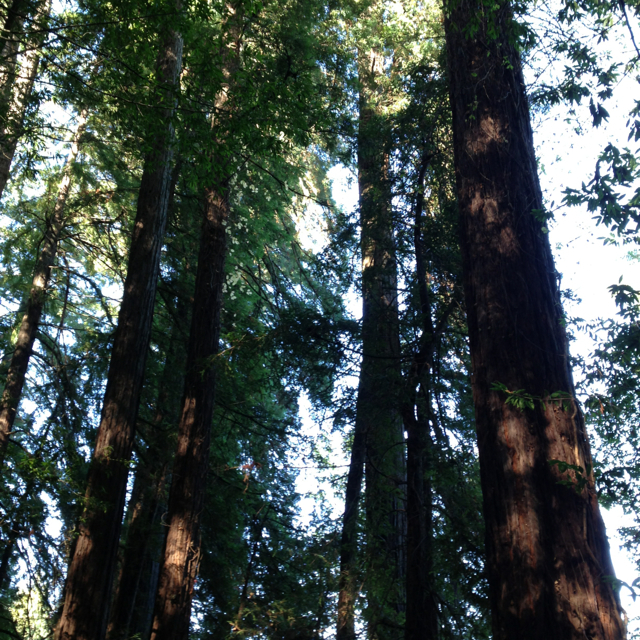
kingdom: Plantae
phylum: Tracheophyta
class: Pinopsida
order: Pinales
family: Cupressaceae
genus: Sequoia
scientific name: Sequoia sempervirens
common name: Coast redwood
